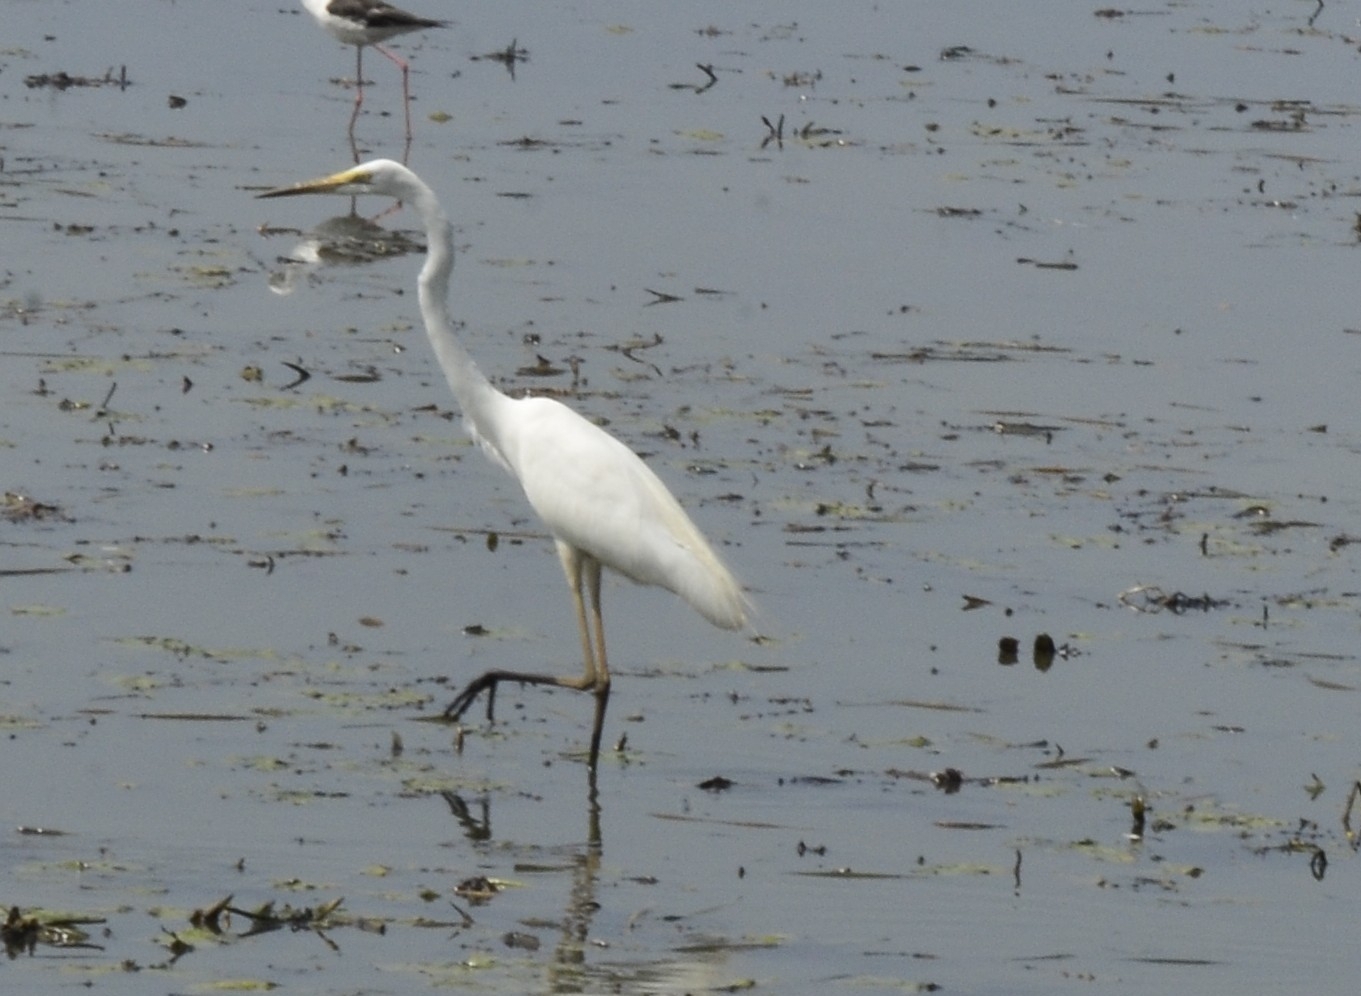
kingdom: Animalia
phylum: Chordata
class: Aves
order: Pelecaniformes
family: Ardeidae
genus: Ardea
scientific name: Ardea alba
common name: Great egret
